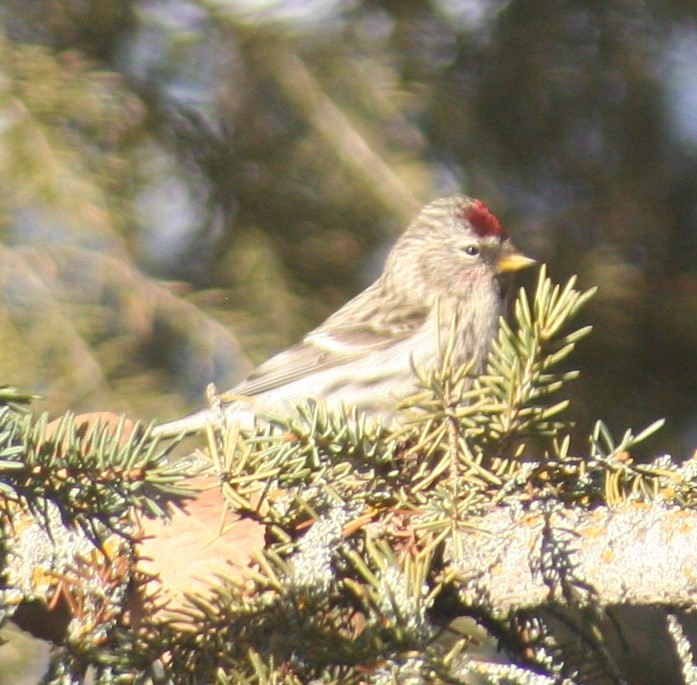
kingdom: Animalia
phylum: Chordata
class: Aves
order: Passeriformes
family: Fringillidae
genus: Acanthis
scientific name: Acanthis flammea
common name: Common redpoll
